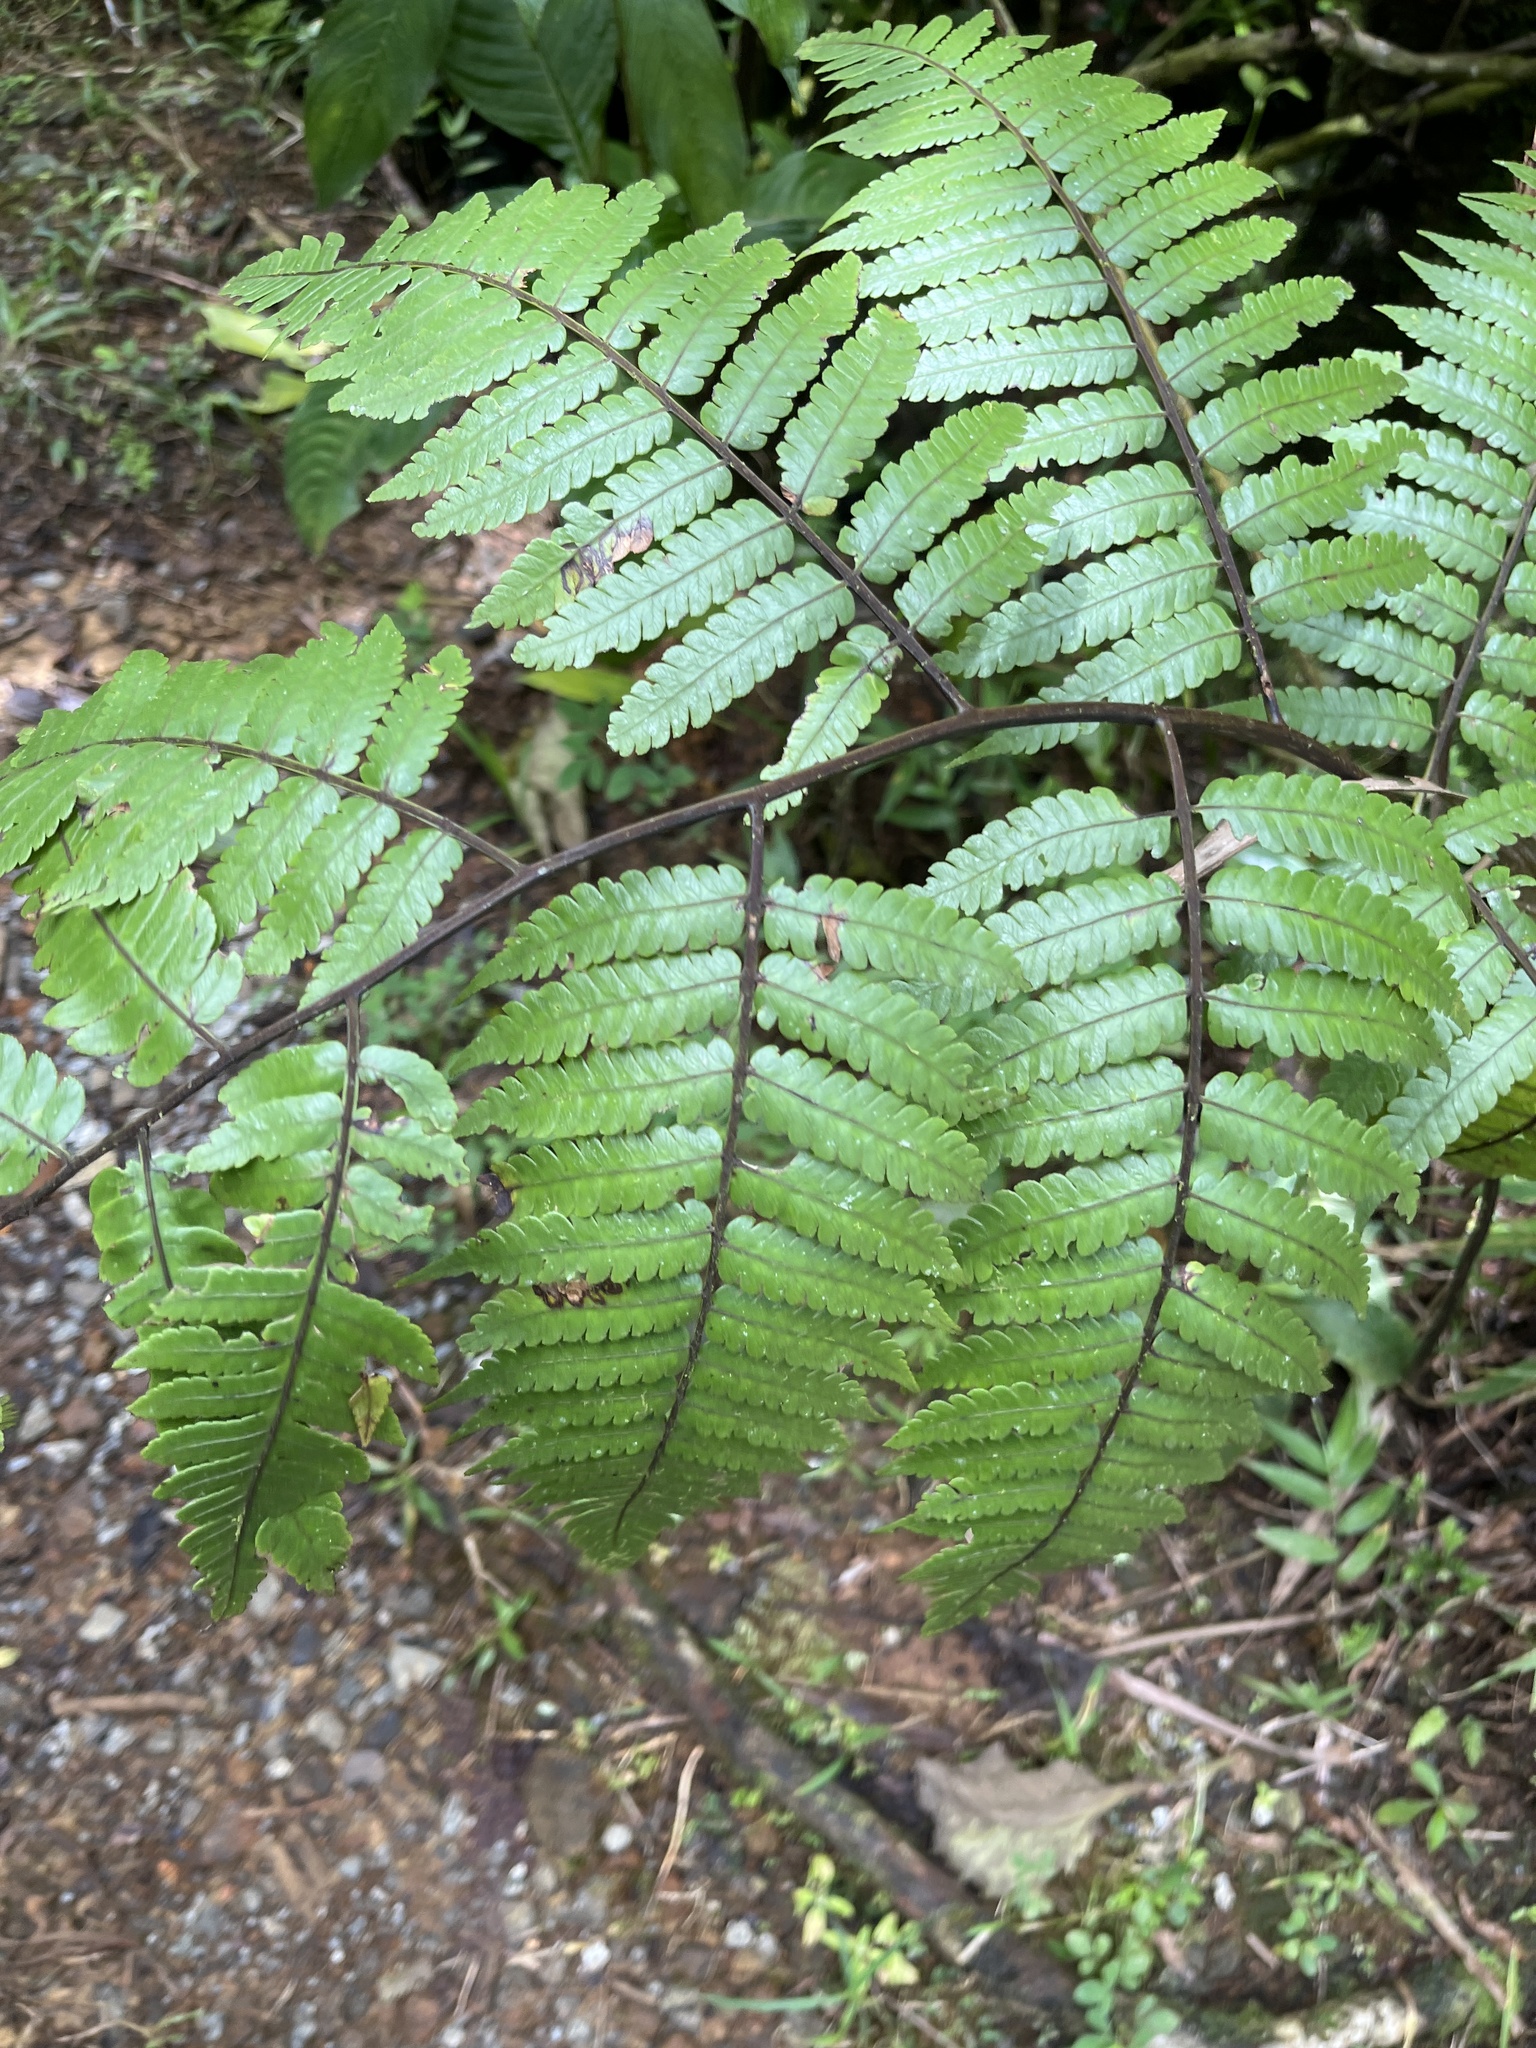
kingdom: Plantae
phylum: Tracheophyta
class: Polypodiopsida
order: Cyatheales
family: Cyatheaceae
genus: Cyathea
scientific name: Cyathea borinquena
